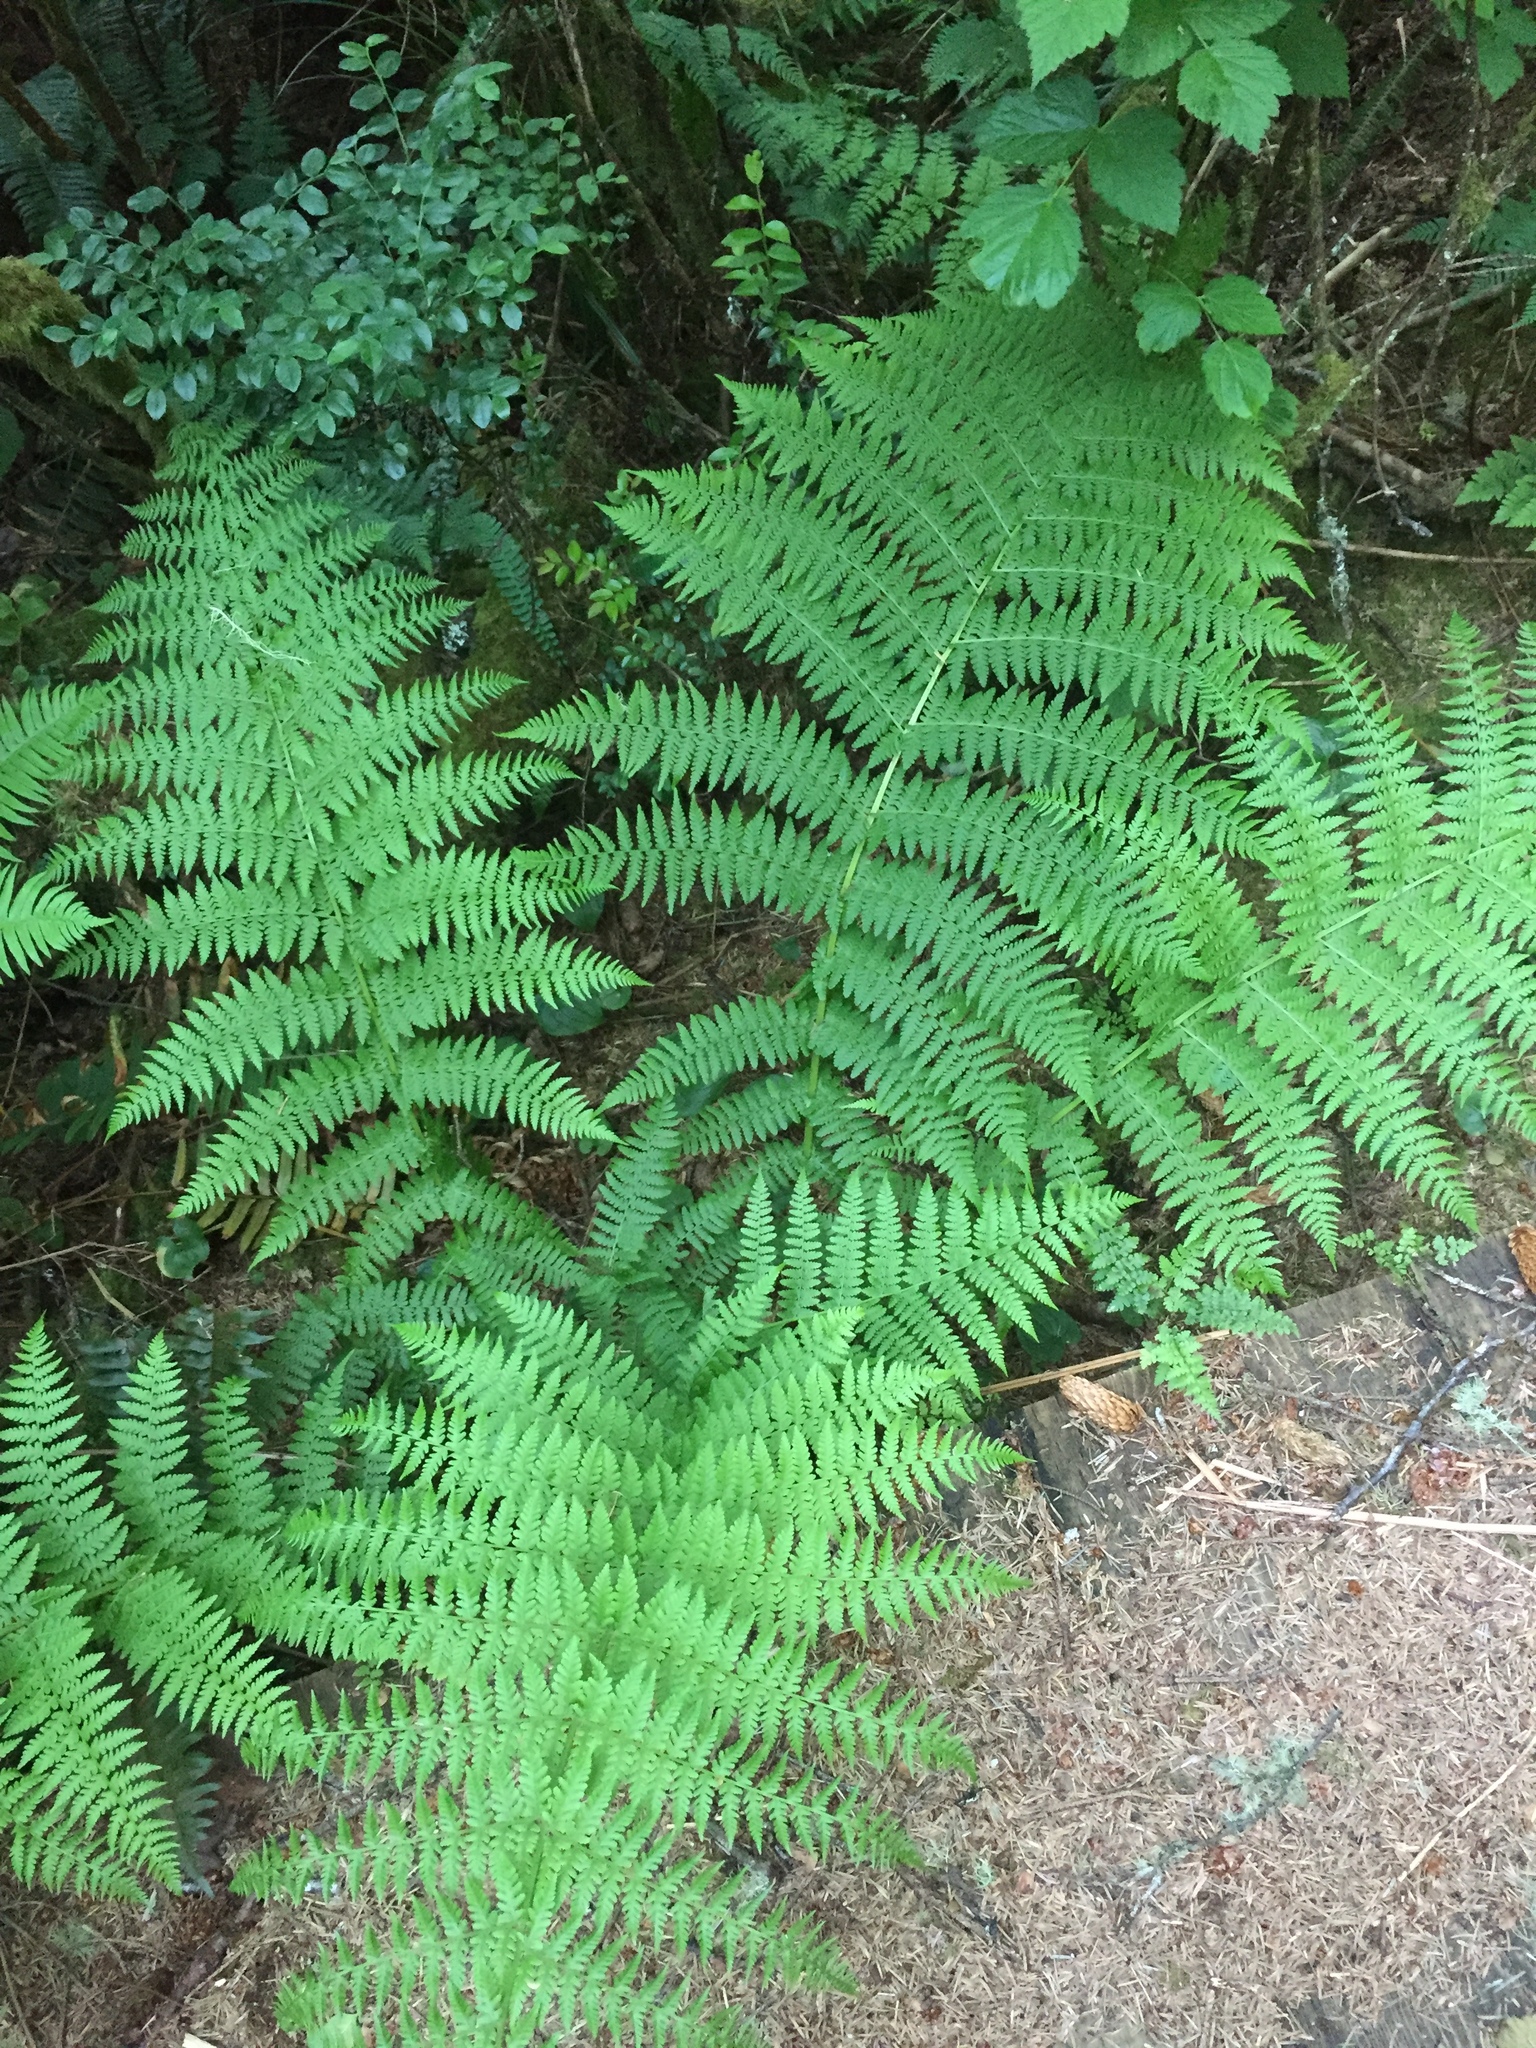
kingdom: Plantae
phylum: Tracheophyta
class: Polypodiopsida
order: Polypodiales
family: Athyriaceae
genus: Athyrium
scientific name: Athyrium filix-femina
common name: Lady fern
